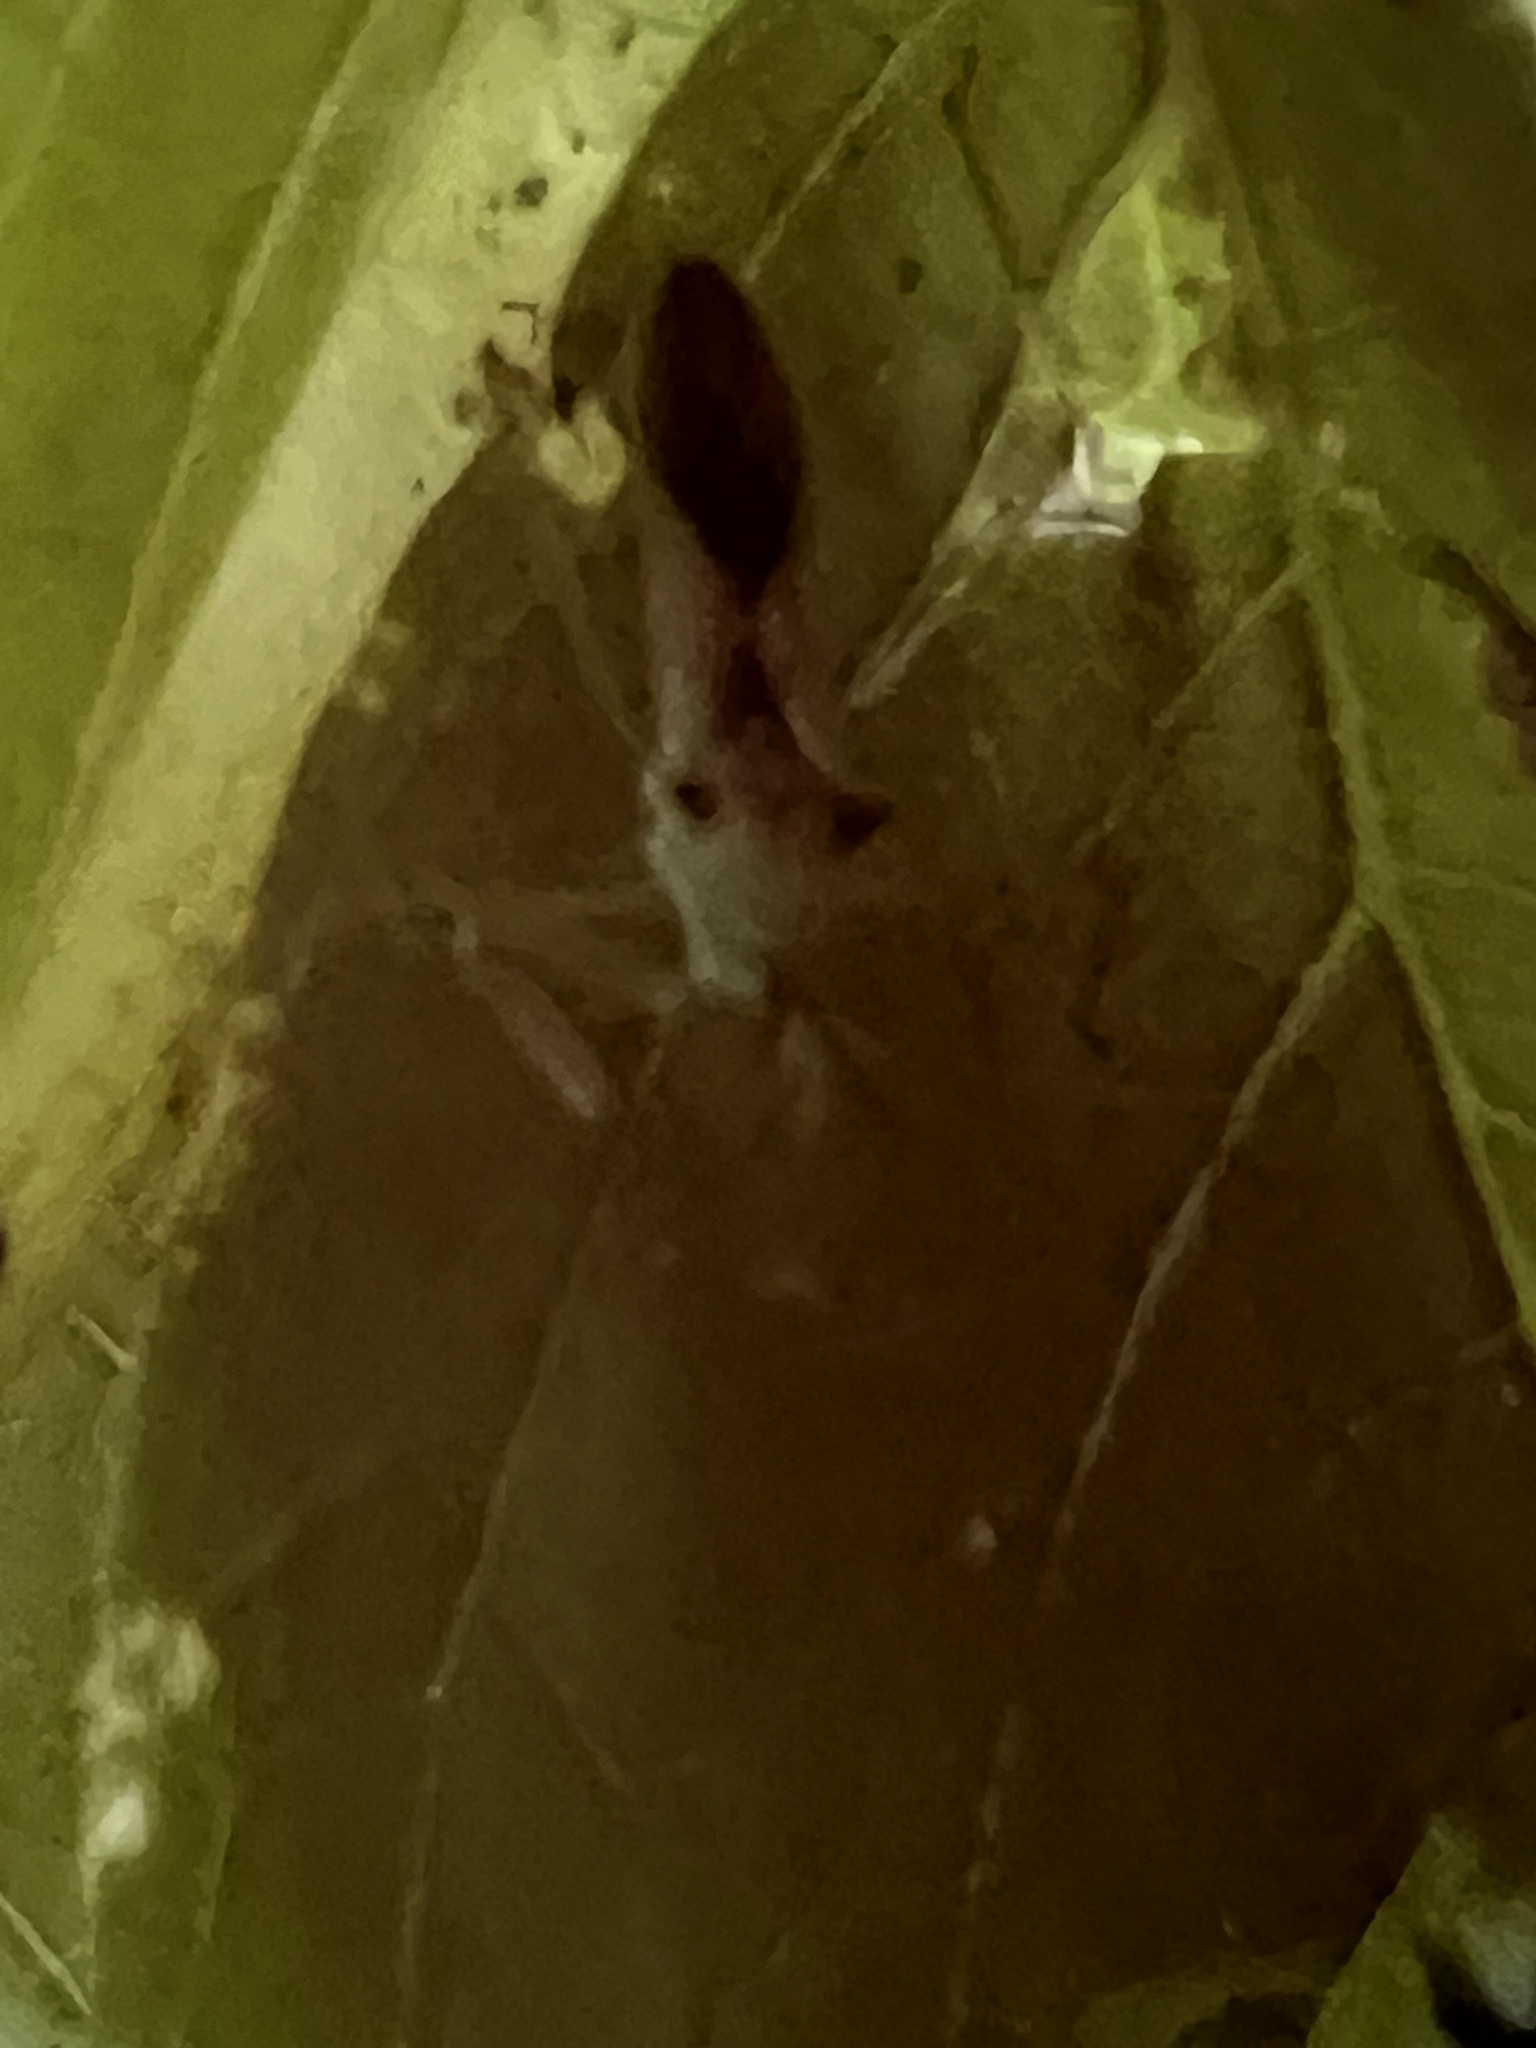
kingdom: Animalia
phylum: Arthropoda
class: Insecta
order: Hemiptera
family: Reduviidae
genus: Zelus
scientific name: Zelus luridus
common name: Pale green assassin bug
